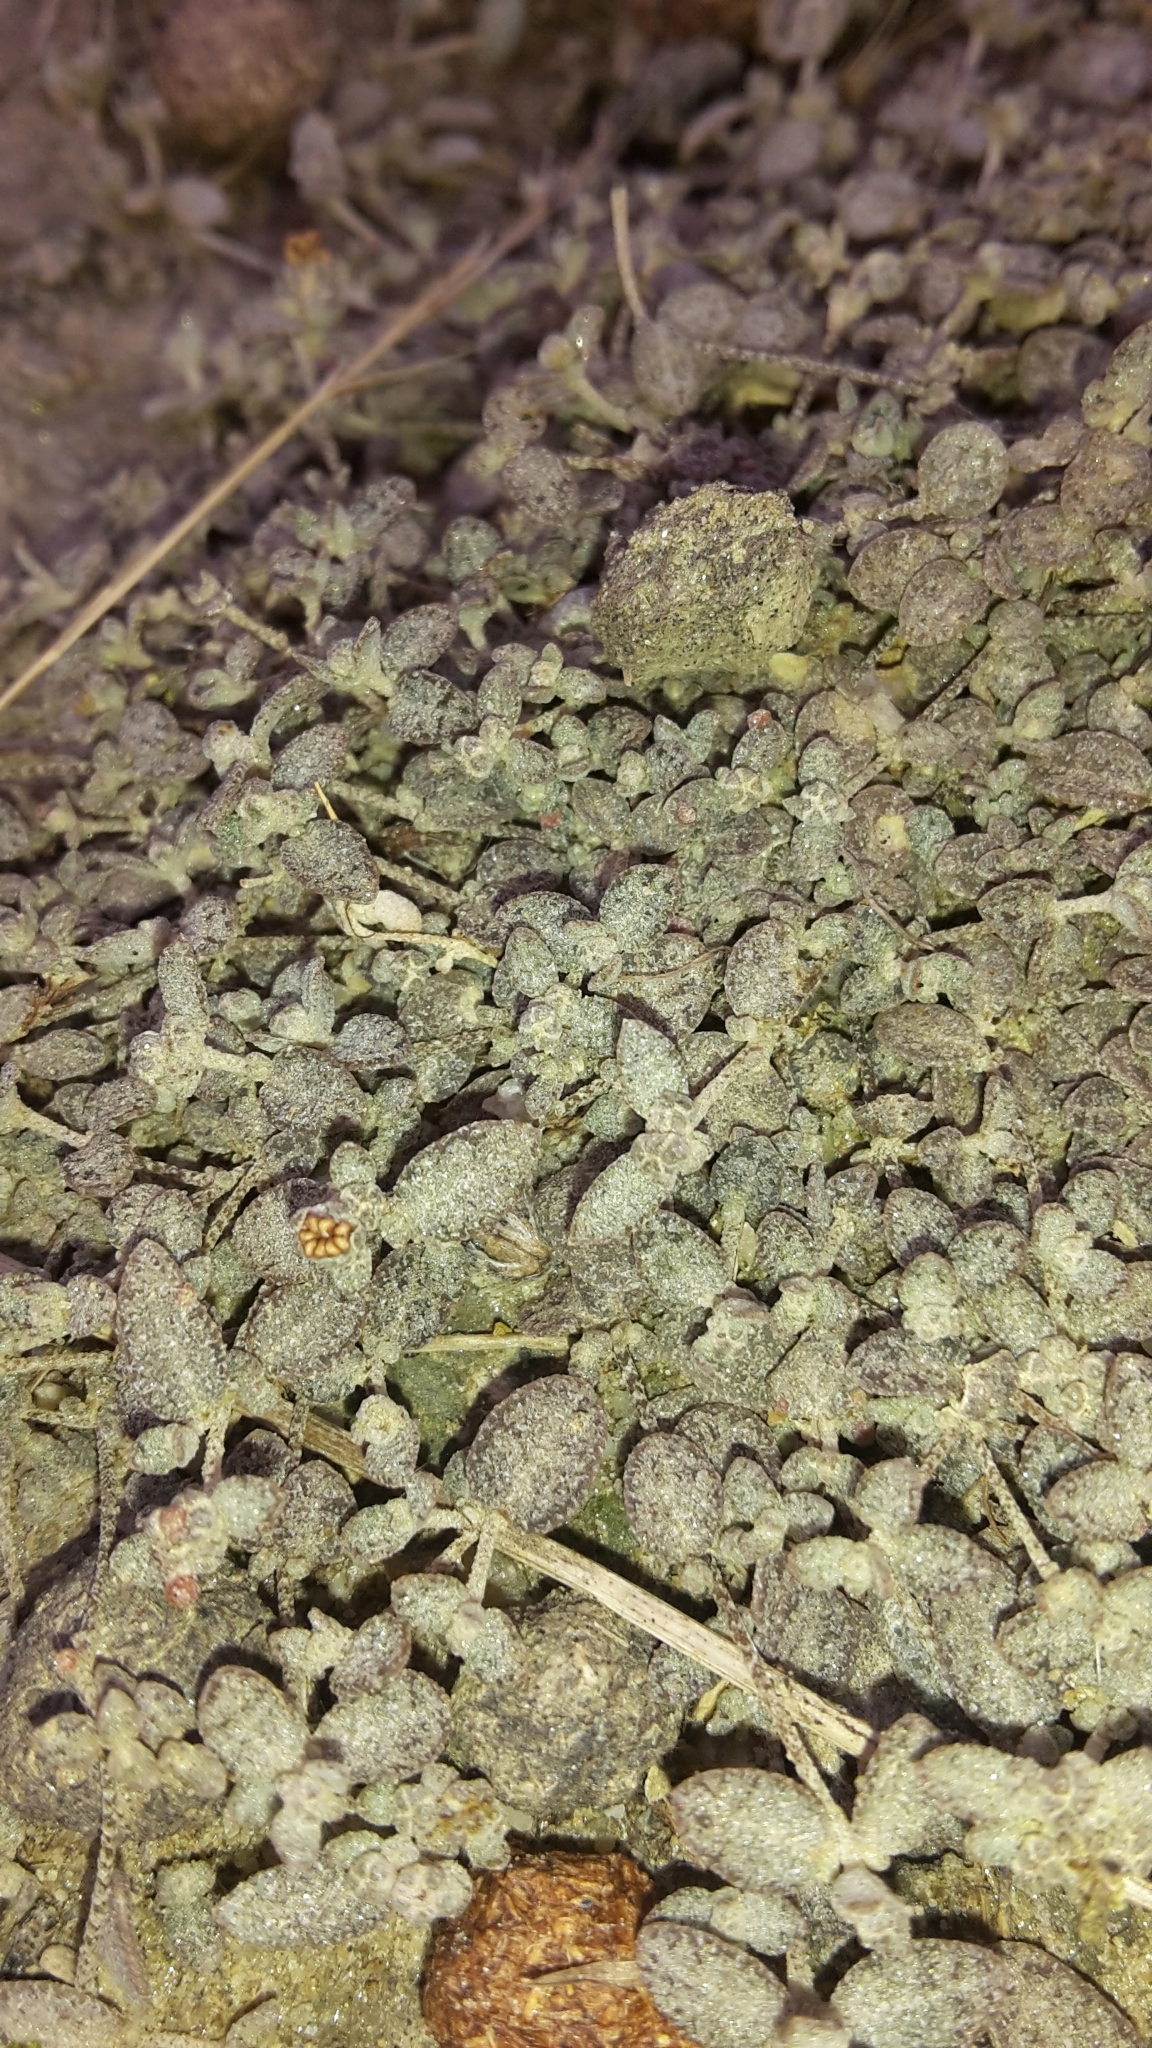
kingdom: Plantae
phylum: Tracheophyta
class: Magnoliopsida
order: Caryophyllales
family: Amaranthaceae
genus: Atriplex
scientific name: Atriplex buchananii
